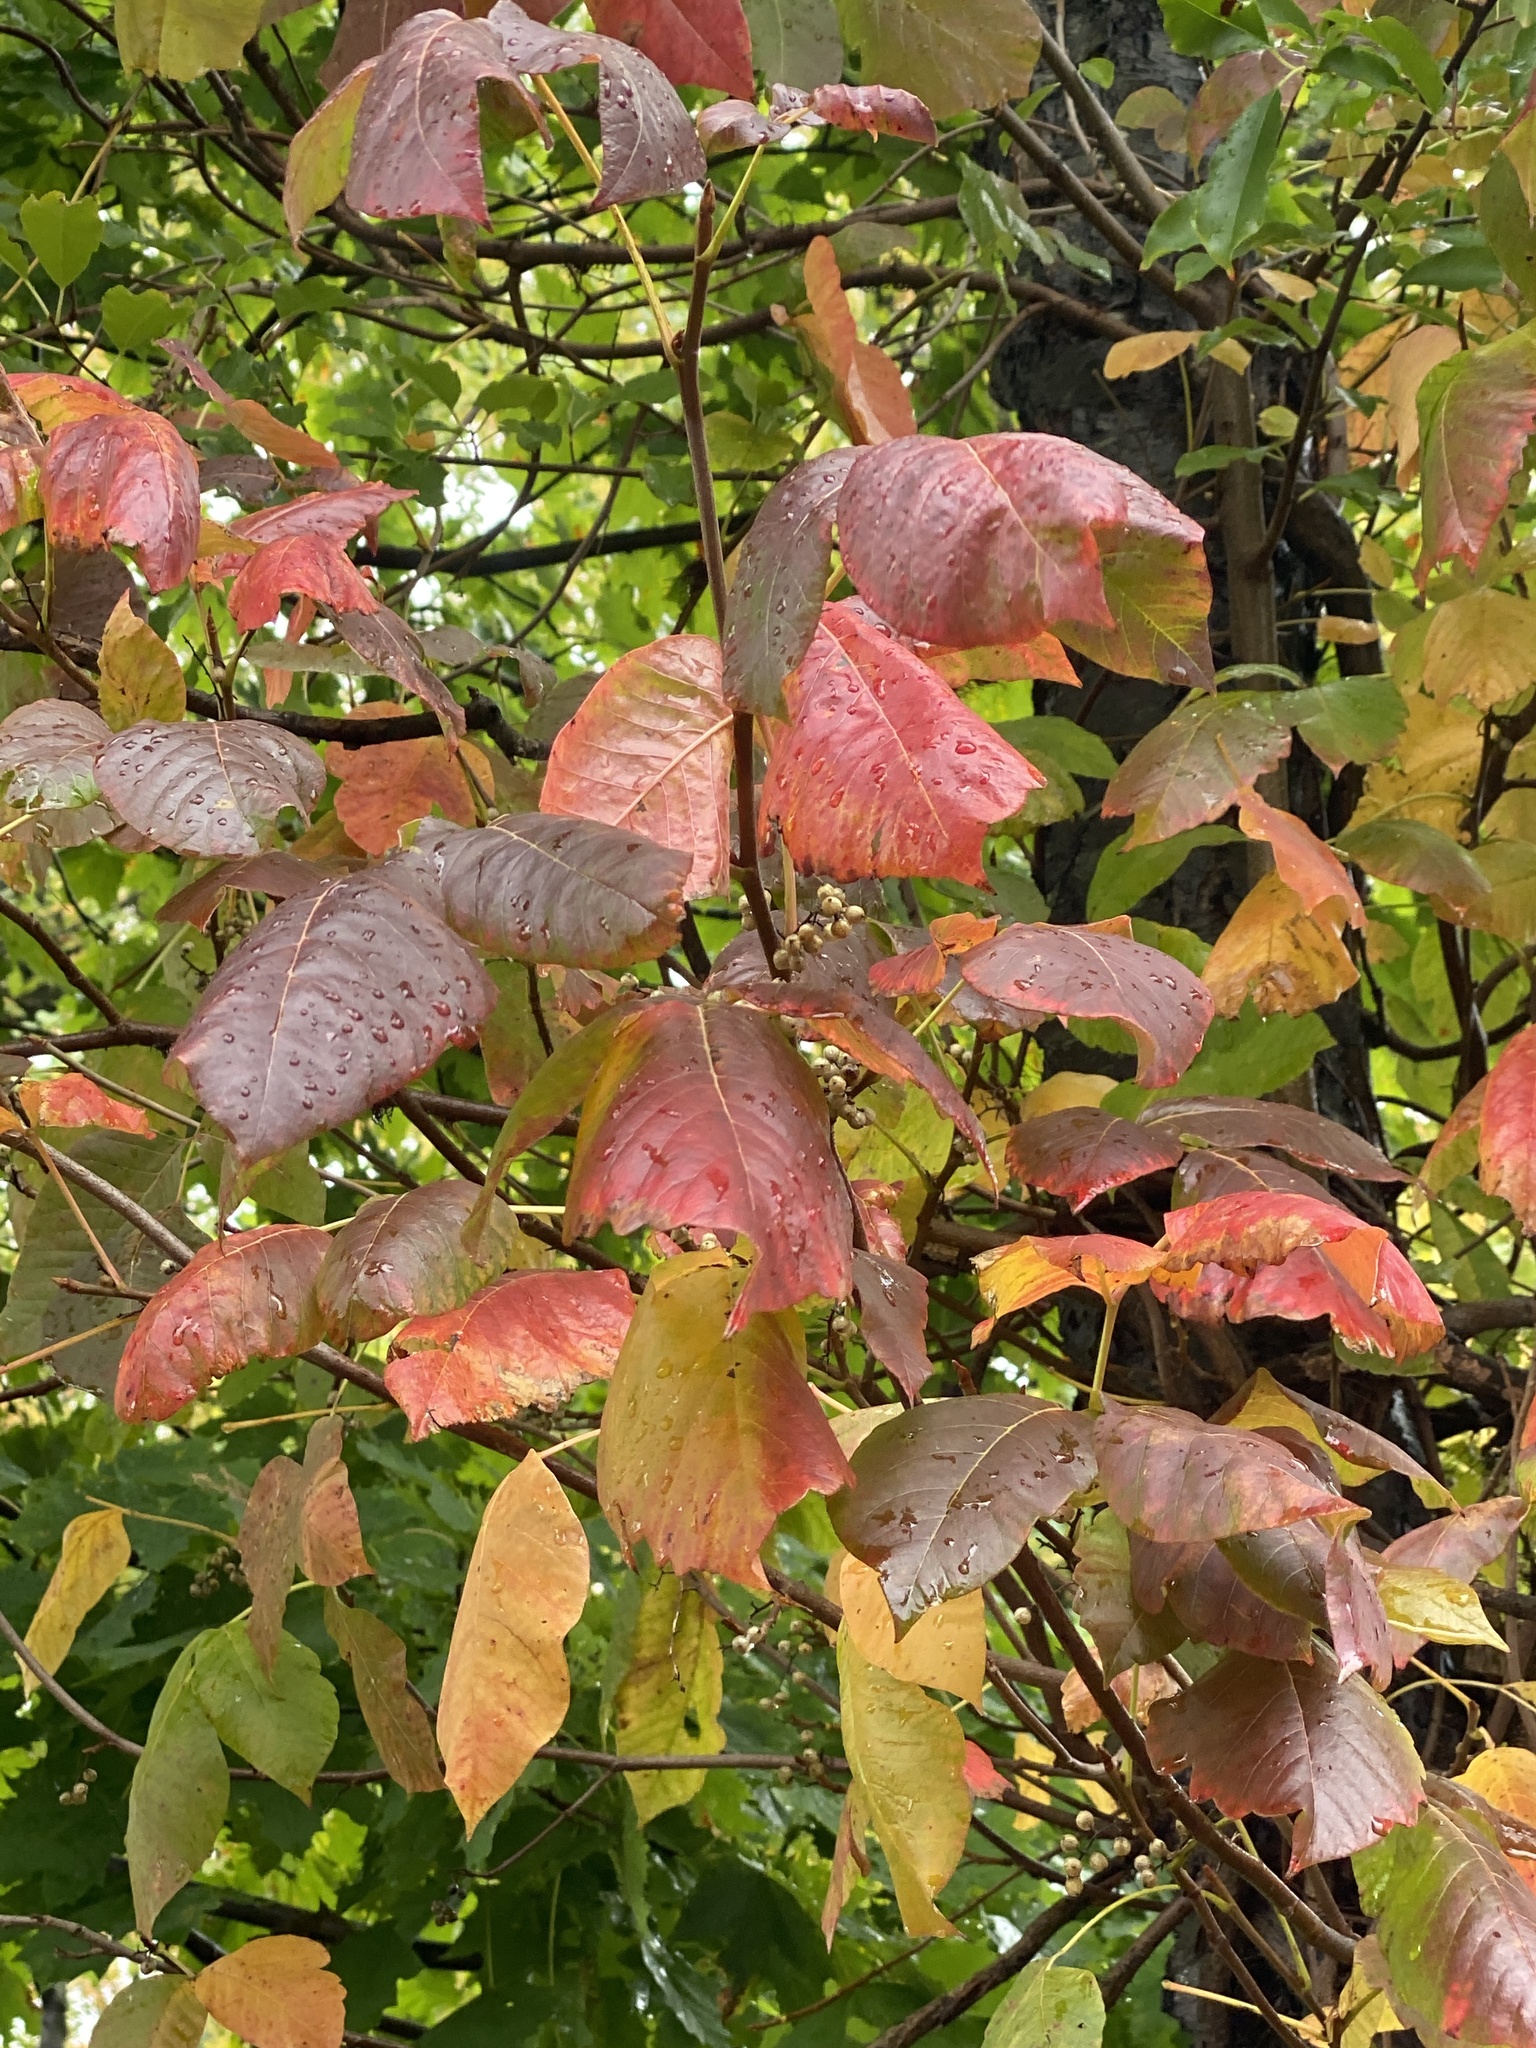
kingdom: Plantae
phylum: Tracheophyta
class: Magnoliopsida
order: Sapindales
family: Anacardiaceae
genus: Toxicodendron
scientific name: Toxicodendron radicans
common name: Poison ivy
